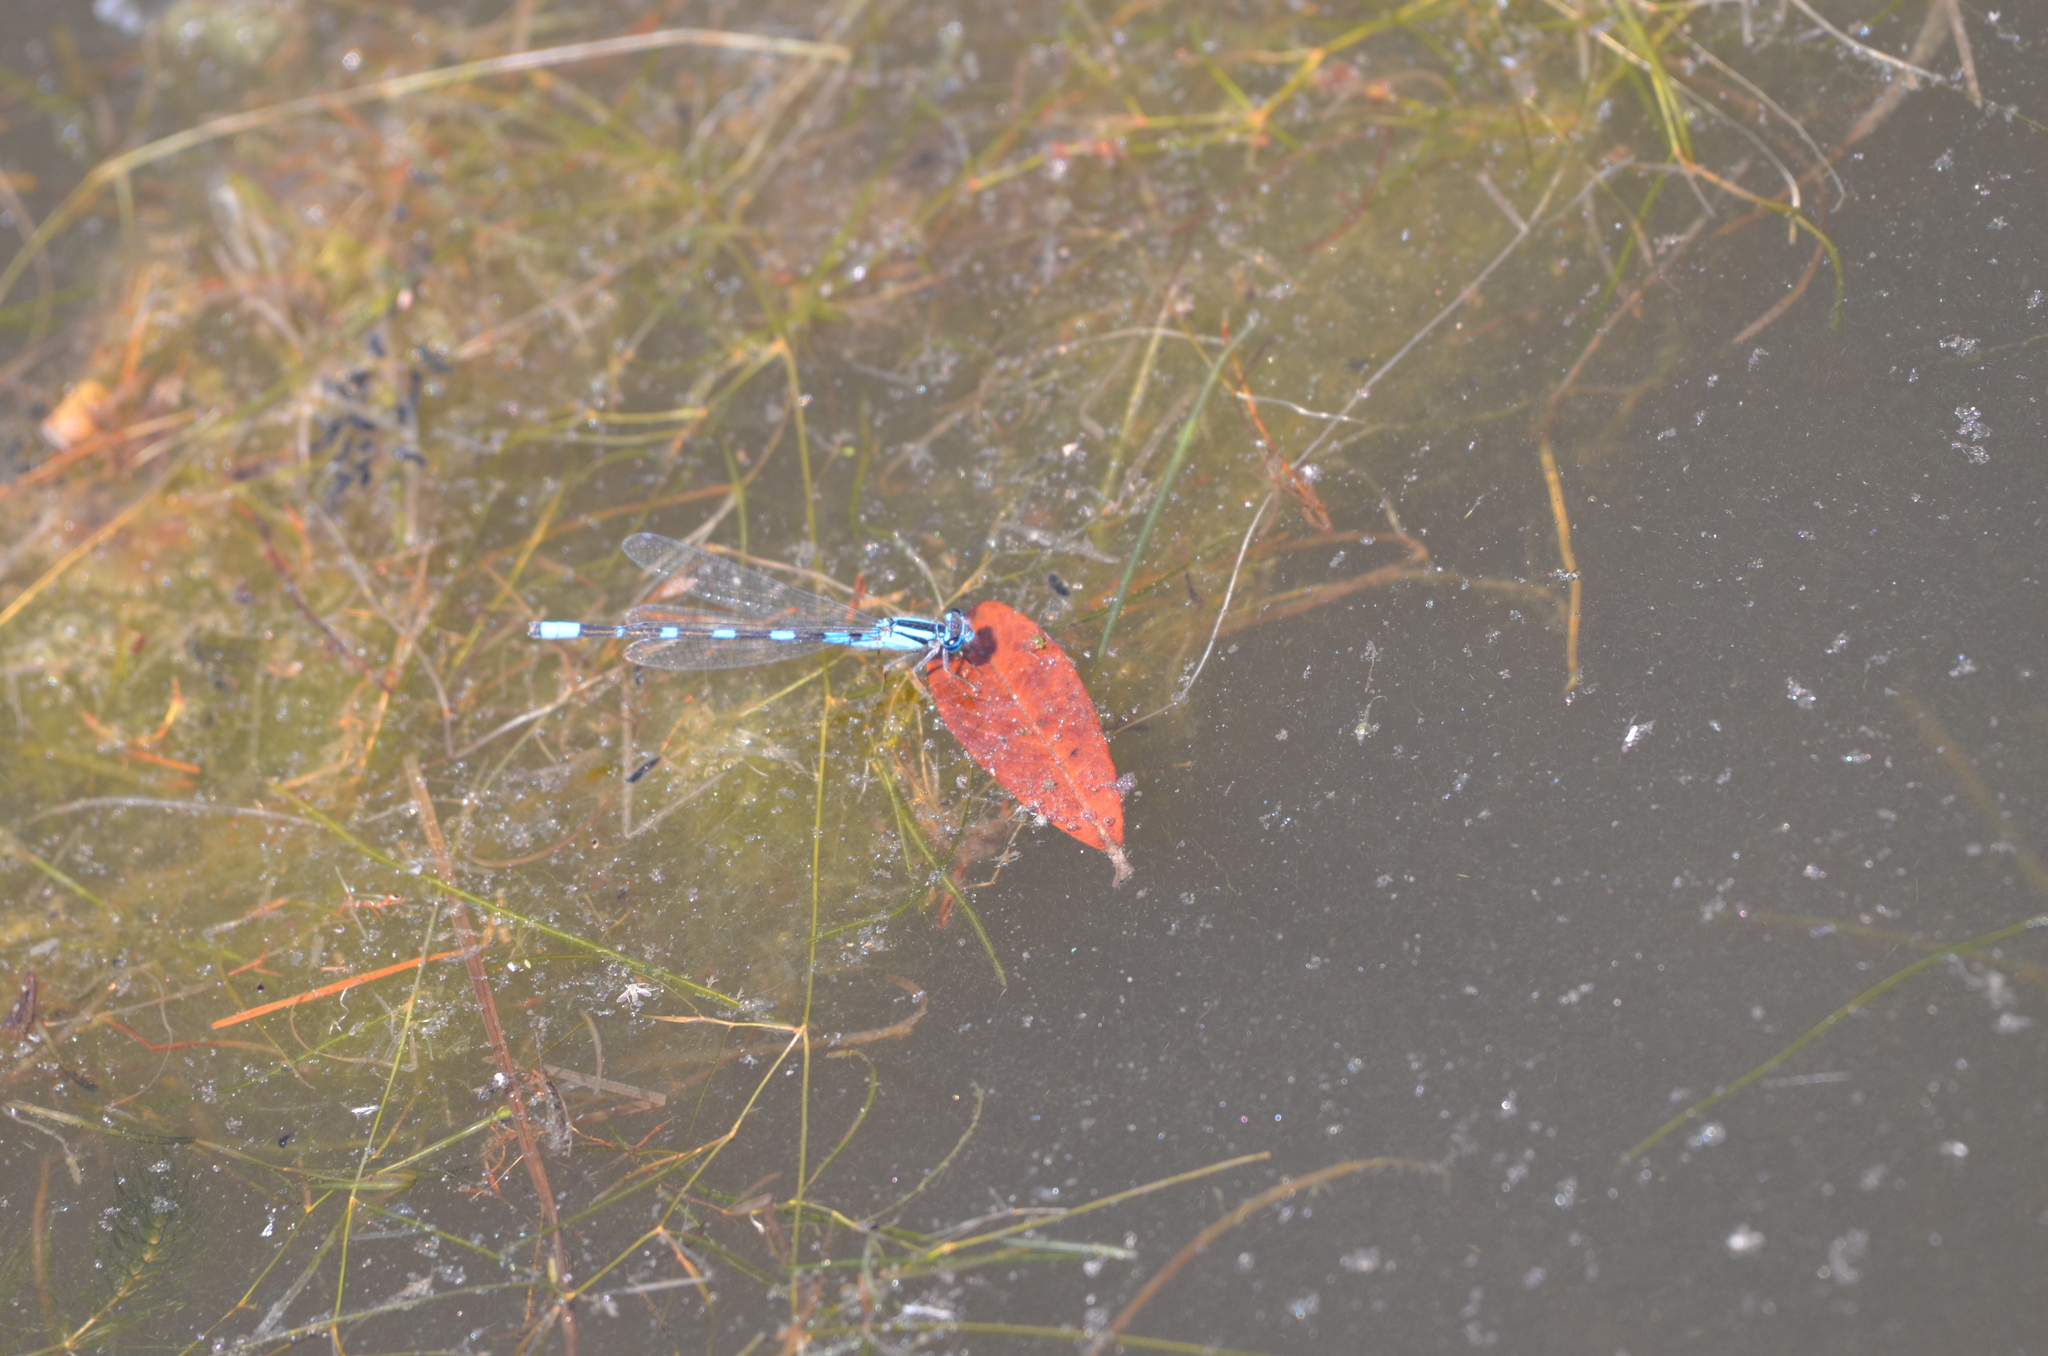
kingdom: Animalia
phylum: Arthropoda
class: Insecta
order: Odonata
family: Coenagrionidae
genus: Enallagma
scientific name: Enallagma carunculatum
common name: Tule bluet
